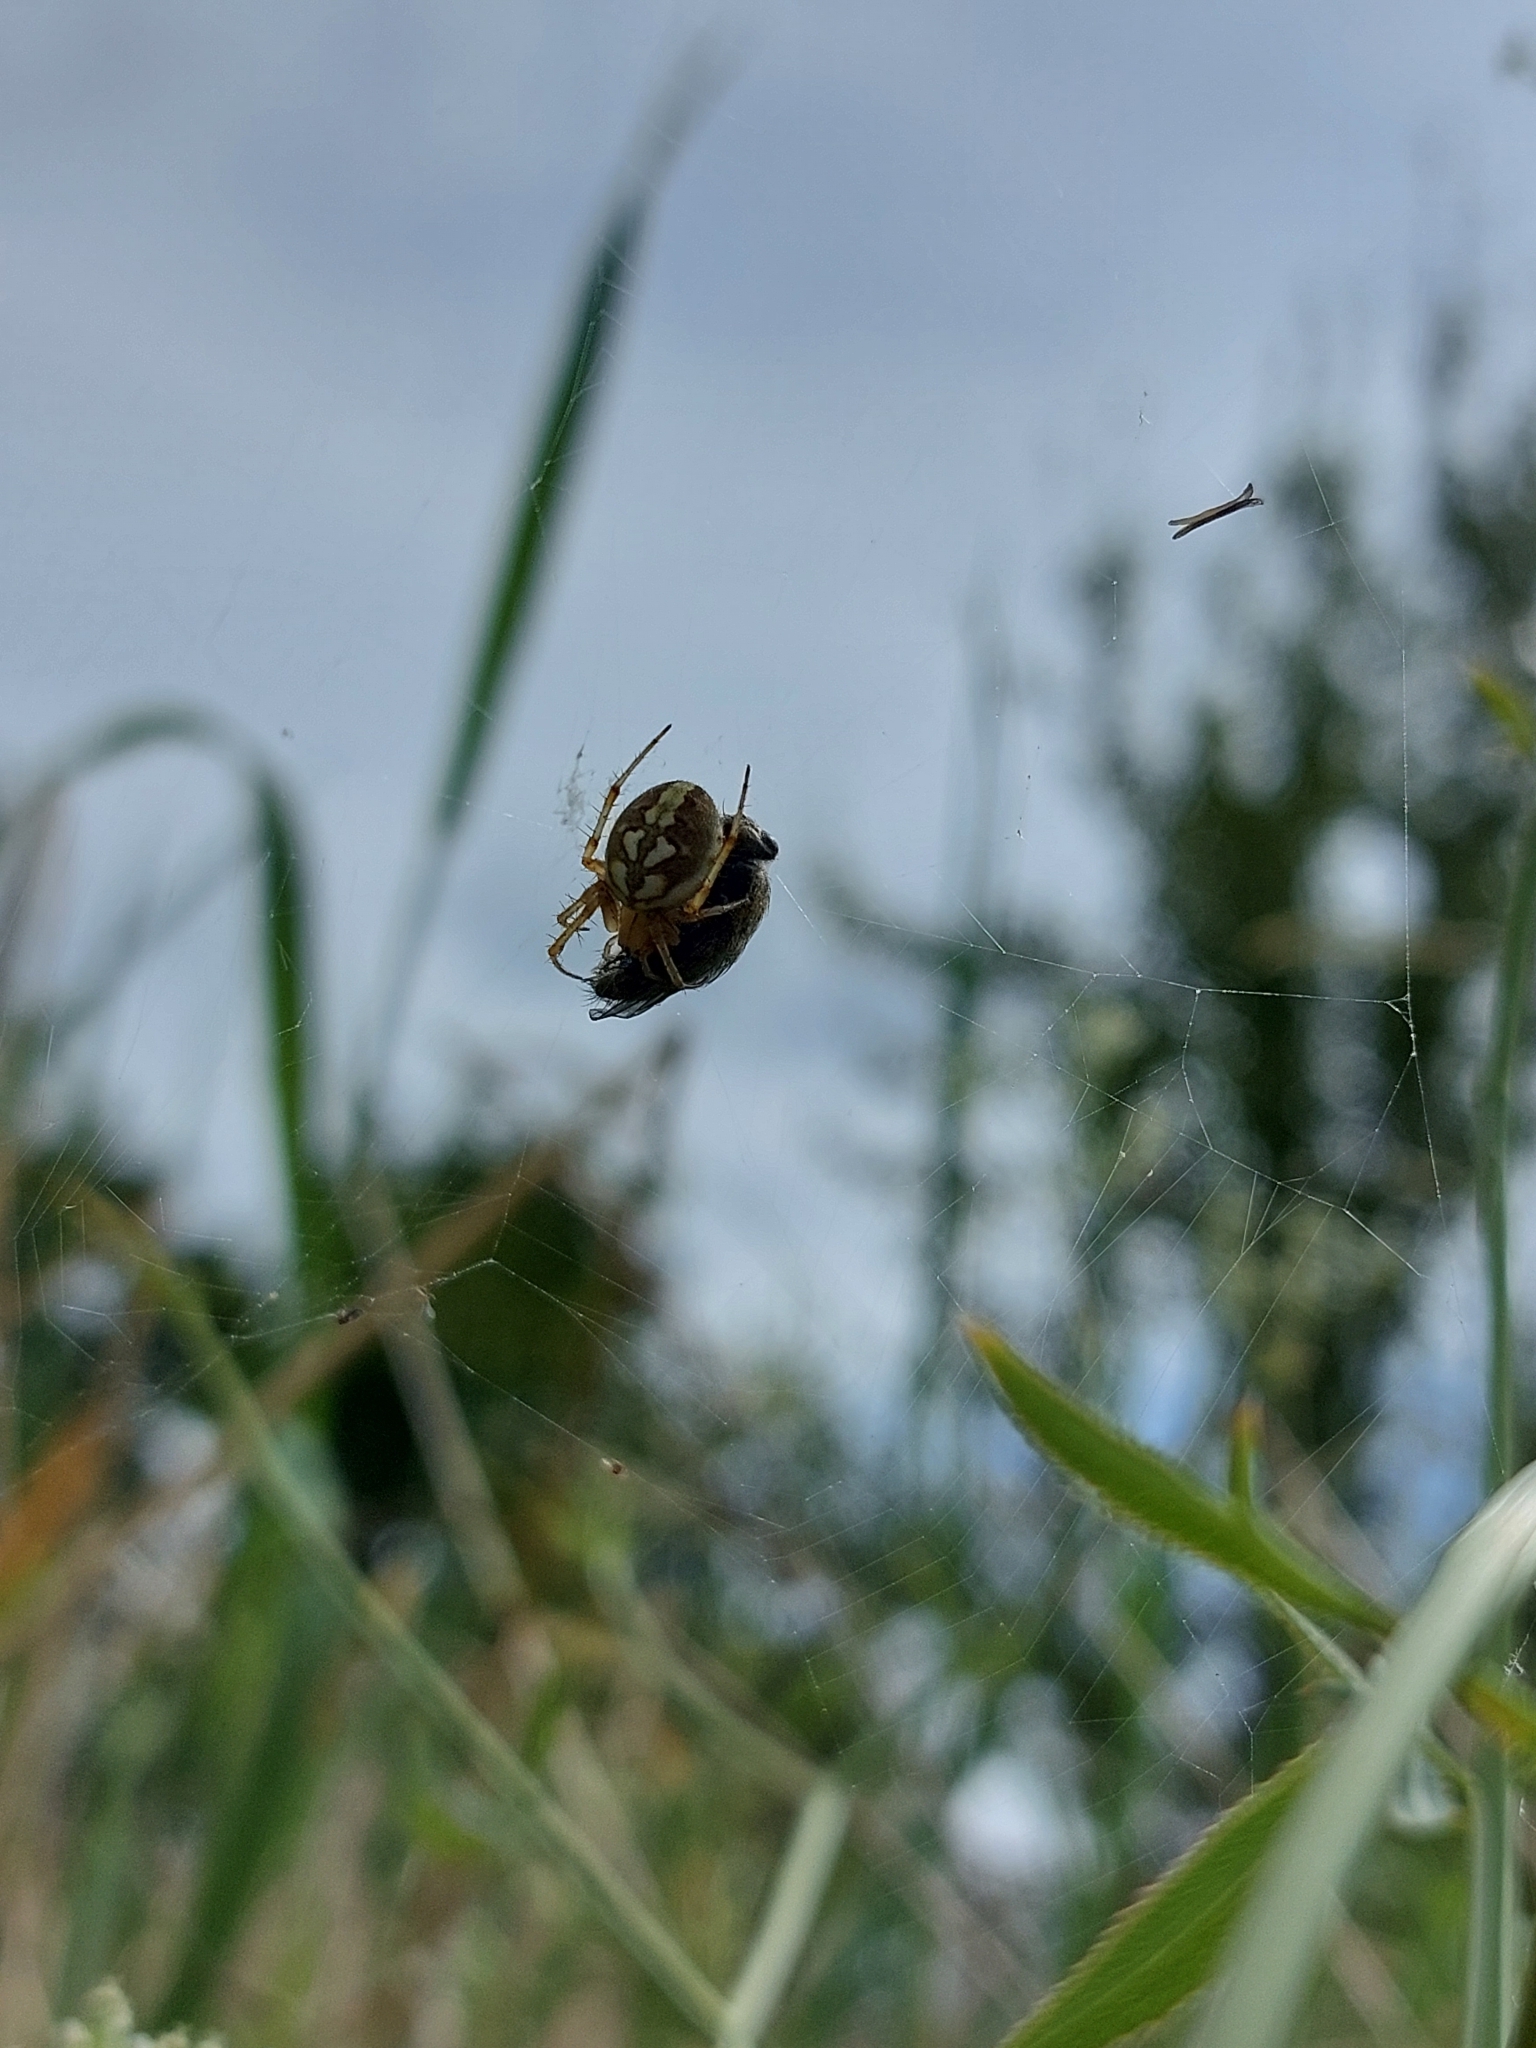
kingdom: Animalia
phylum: Arthropoda
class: Arachnida
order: Araneae
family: Araneidae
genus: Neoscona
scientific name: Neoscona adianta
